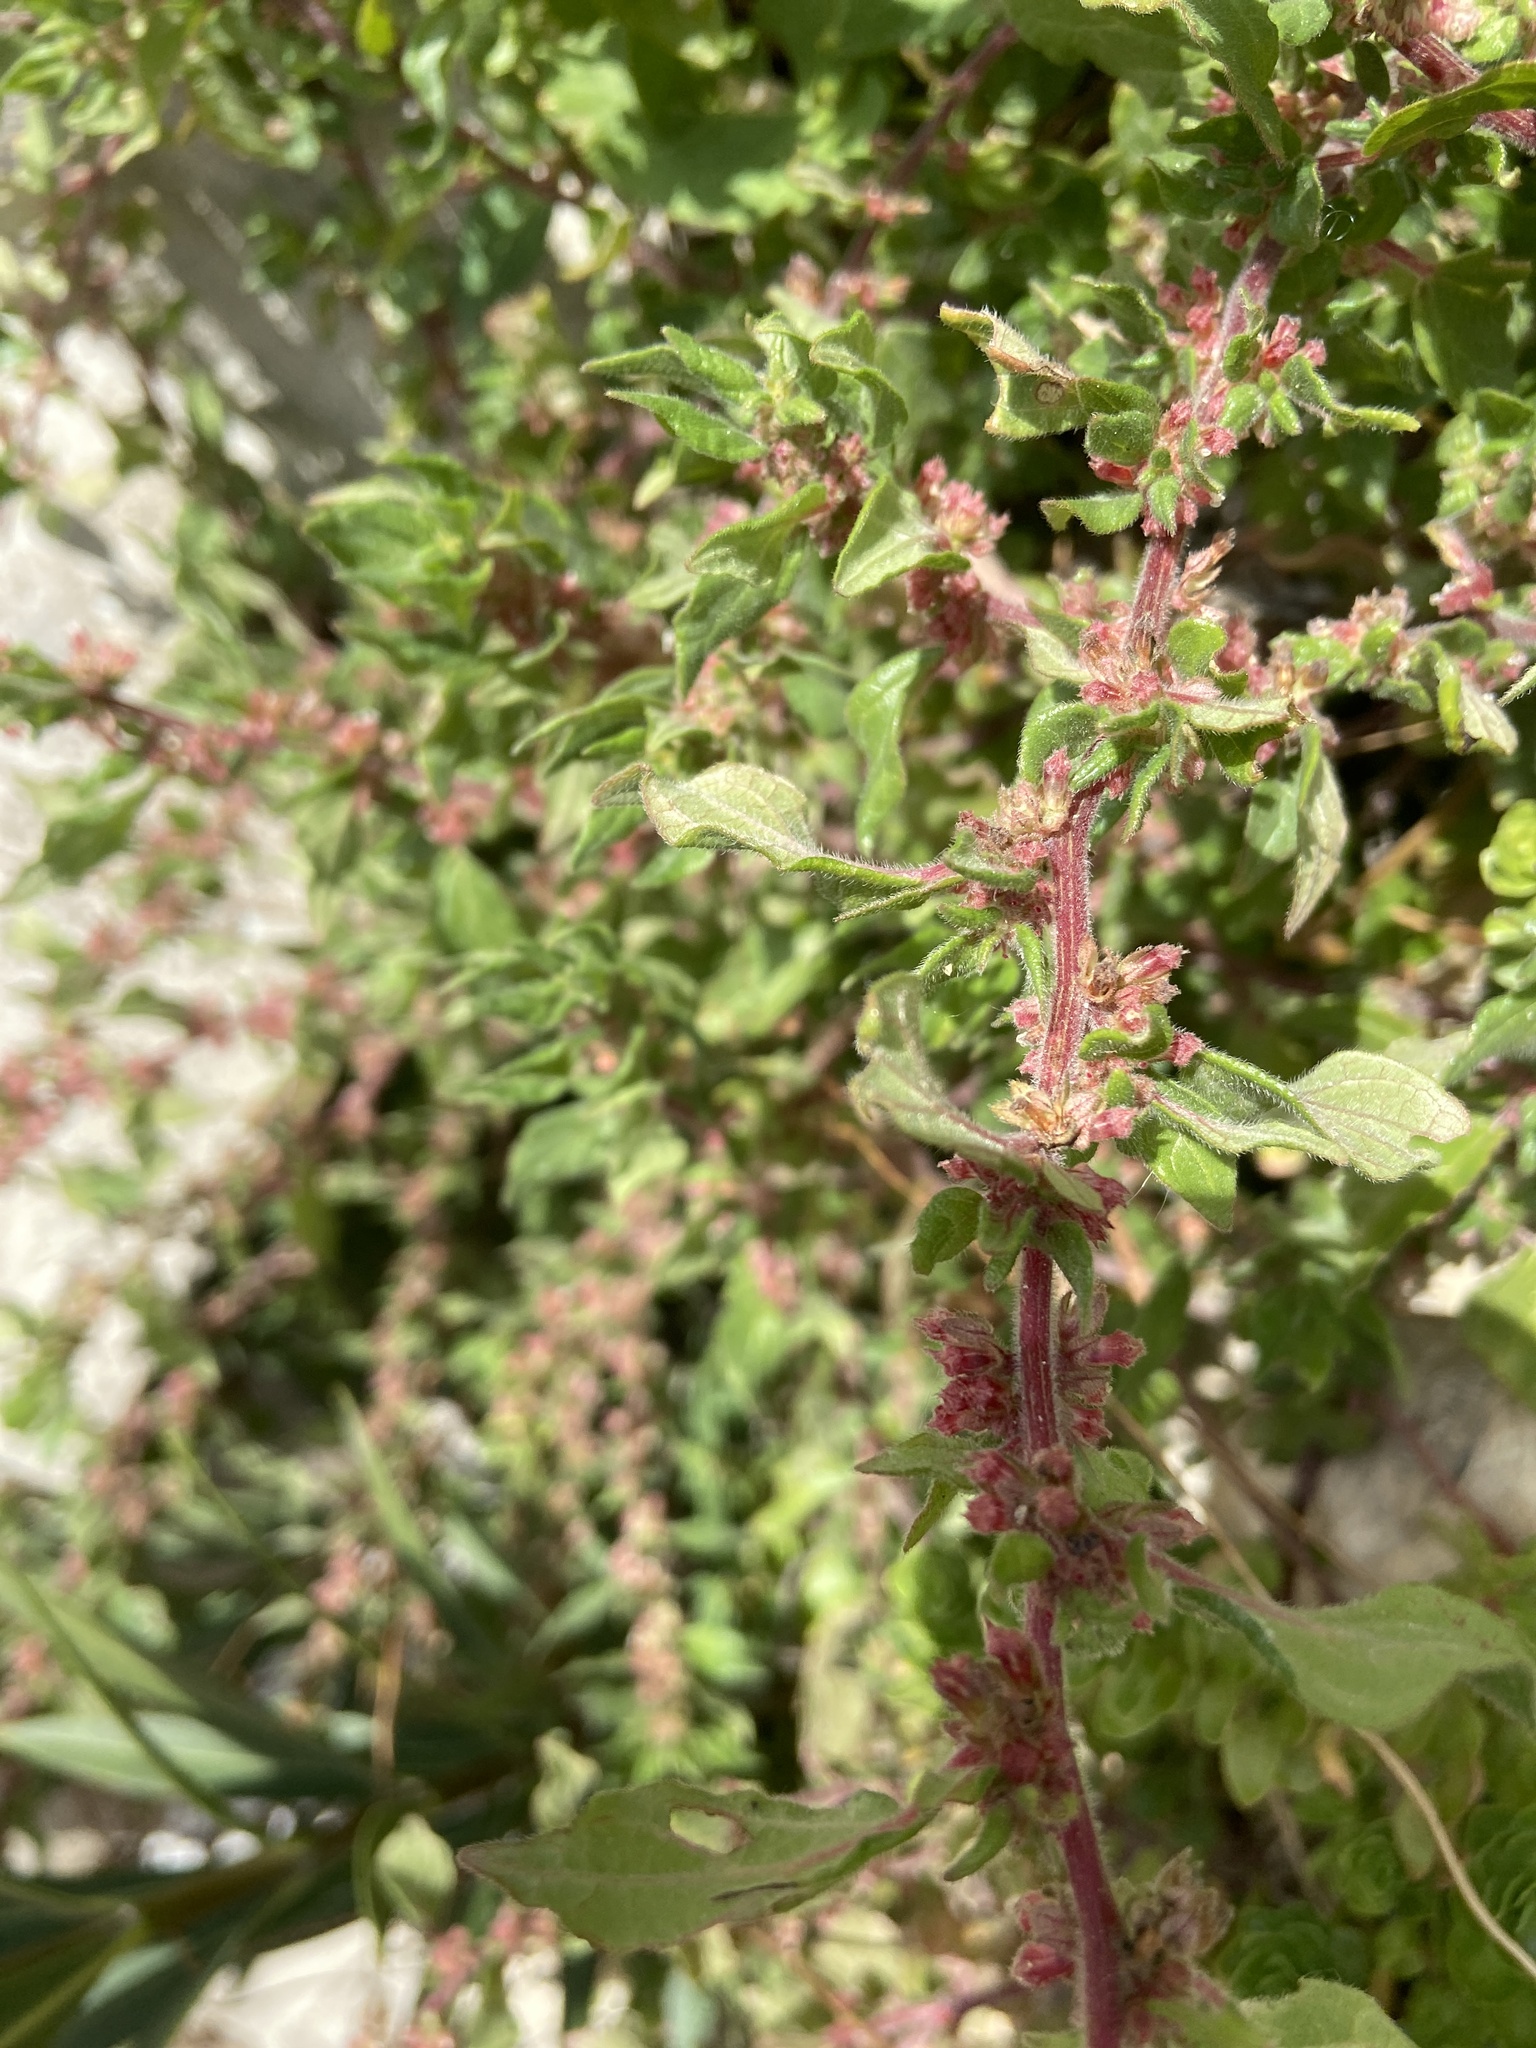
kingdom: Plantae
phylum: Tracheophyta
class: Magnoliopsida
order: Rosales
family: Urticaceae
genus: Parietaria
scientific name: Parietaria judaica
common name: Pellitory-of-the-wall
